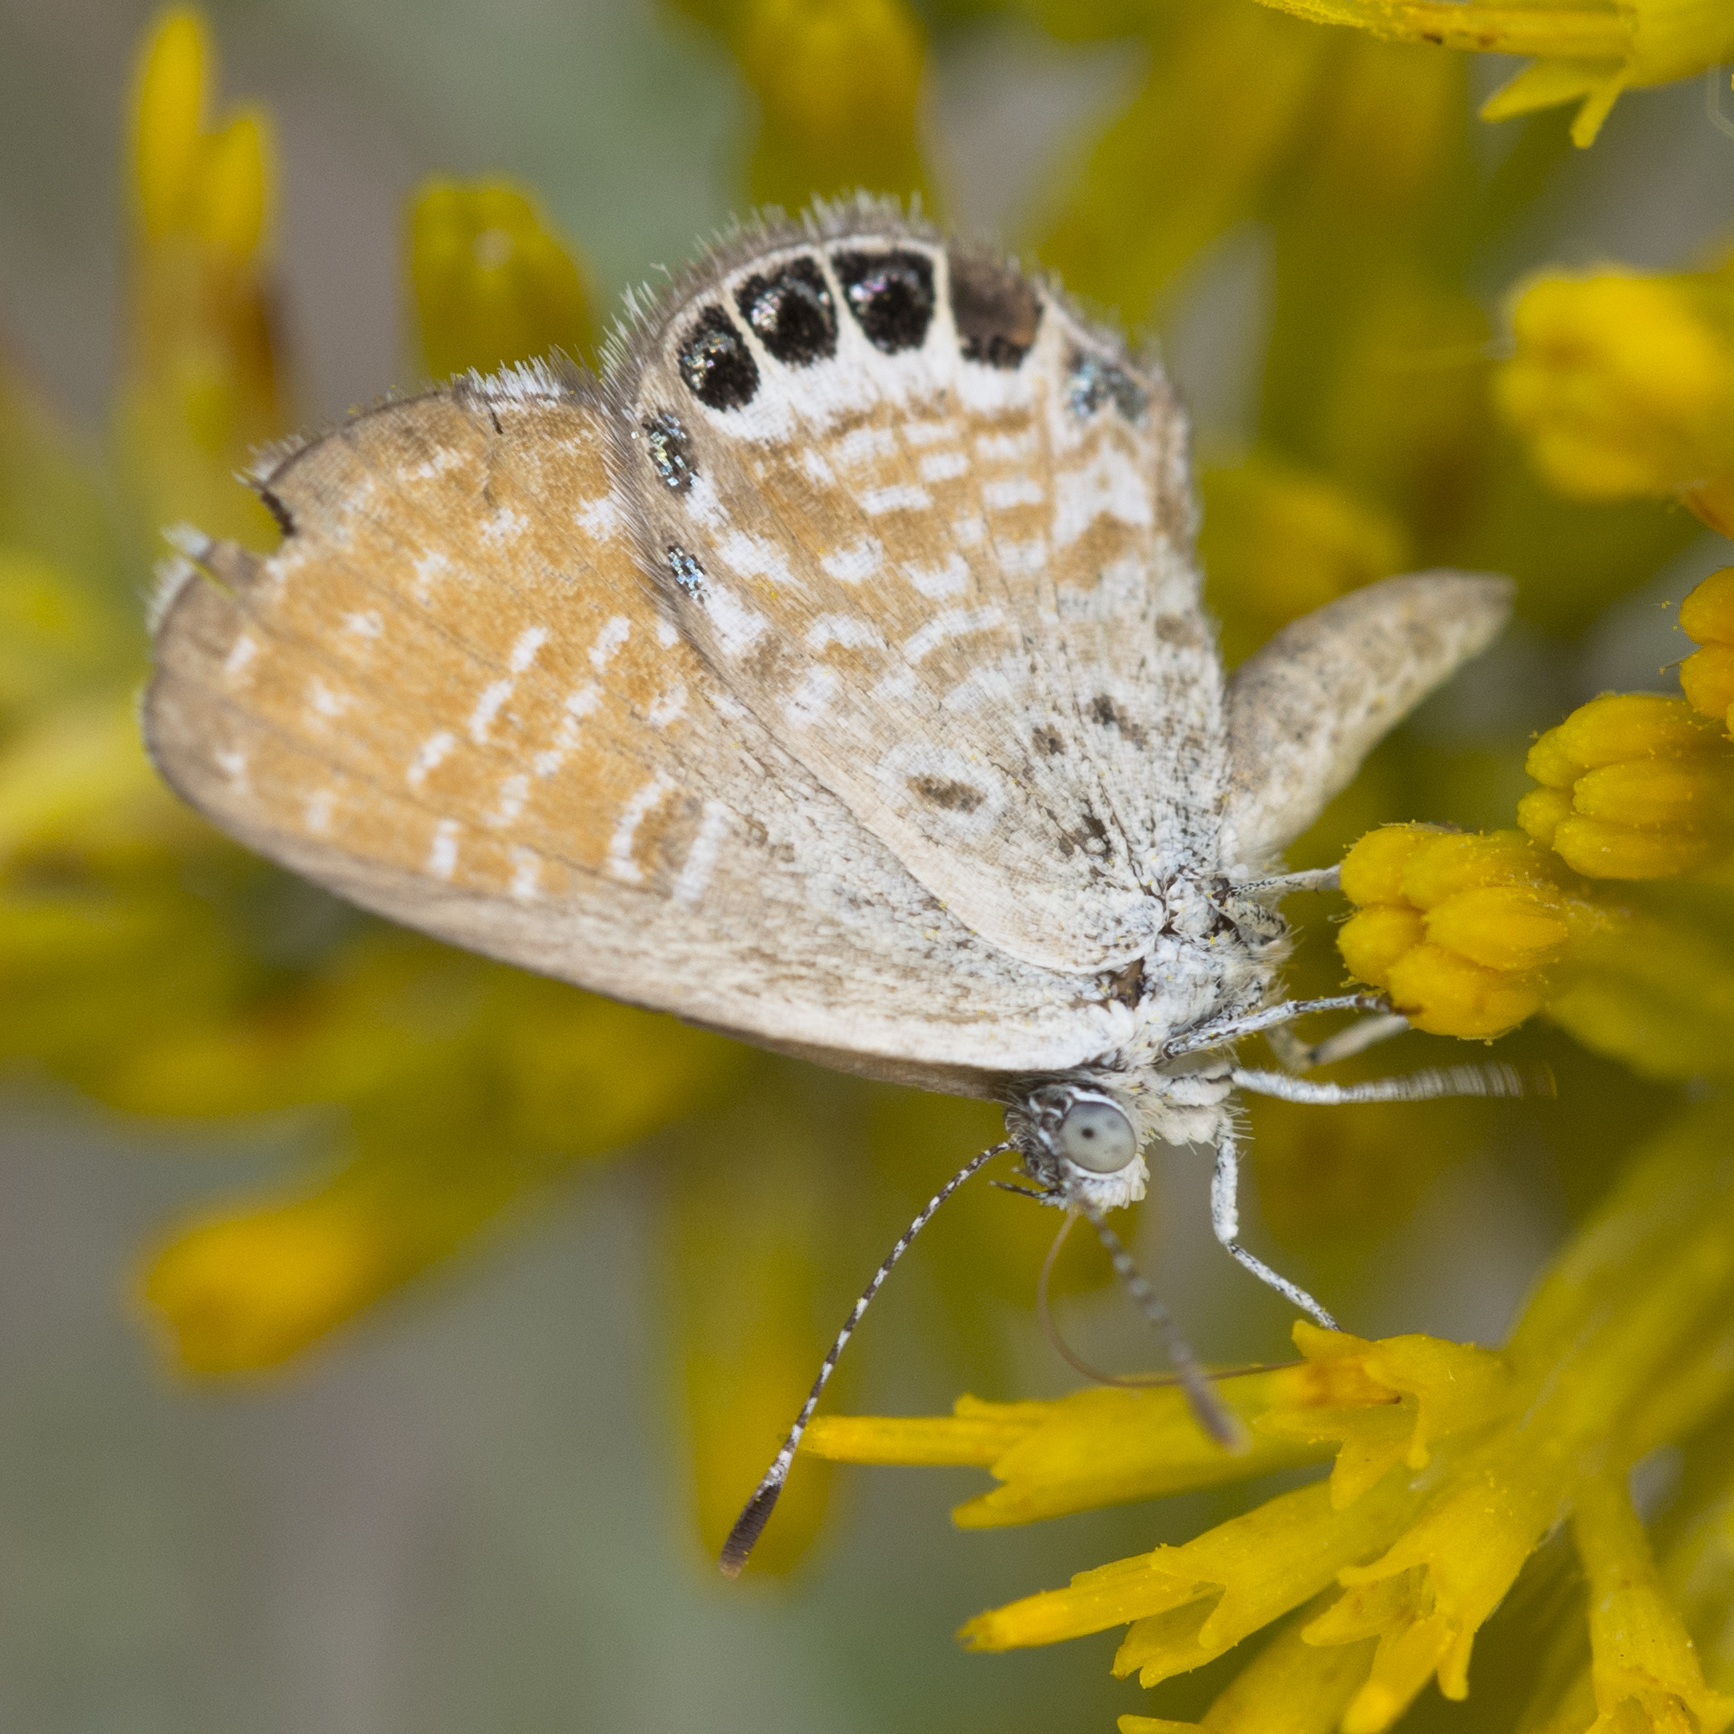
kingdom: Animalia
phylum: Arthropoda
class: Insecta
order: Lepidoptera
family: Lycaenidae
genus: Brephidium
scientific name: Brephidium exilis
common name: Pygmy blue
